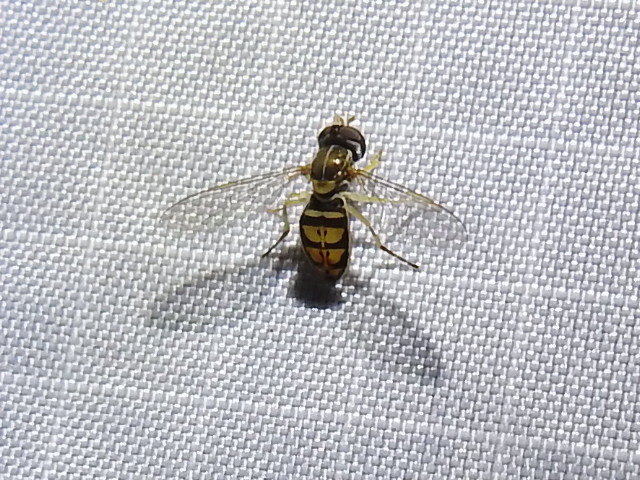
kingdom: Animalia
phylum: Arthropoda
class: Insecta
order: Diptera
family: Syrphidae
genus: Toxomerus
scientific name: Toxomerus marginatus
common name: Syrphid fly
